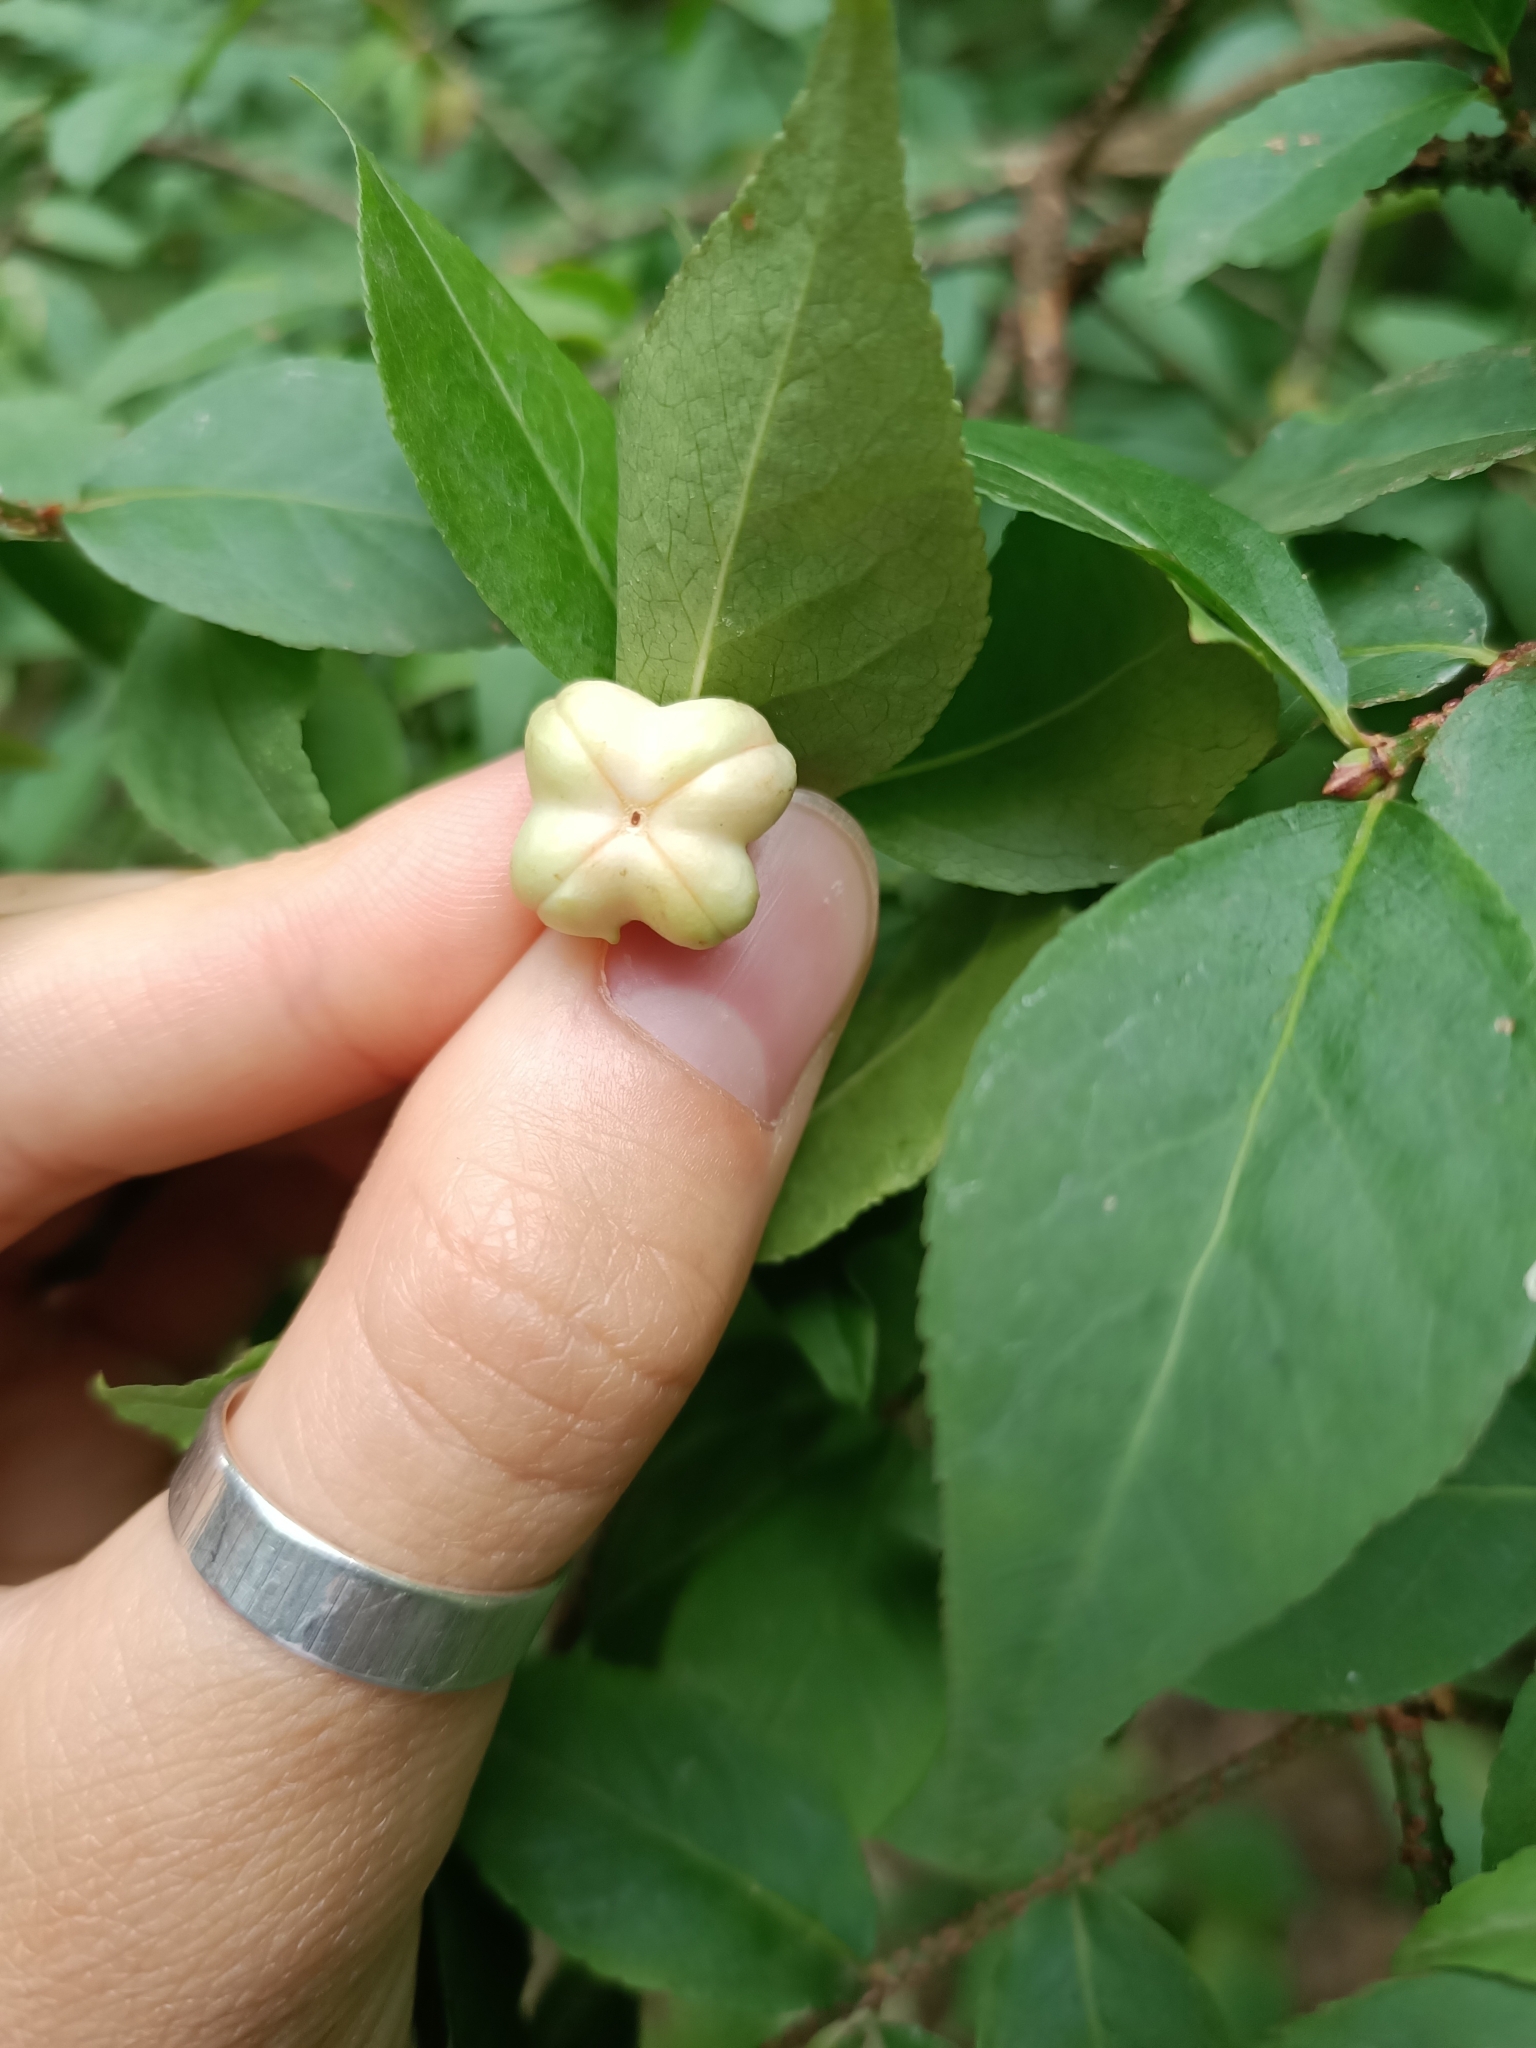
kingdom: Plantae
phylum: Tracheophyta
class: Magnoliopsida
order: Celastrales
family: Celastraceae
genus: Euonymus
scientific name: Euonymus verrucosus
